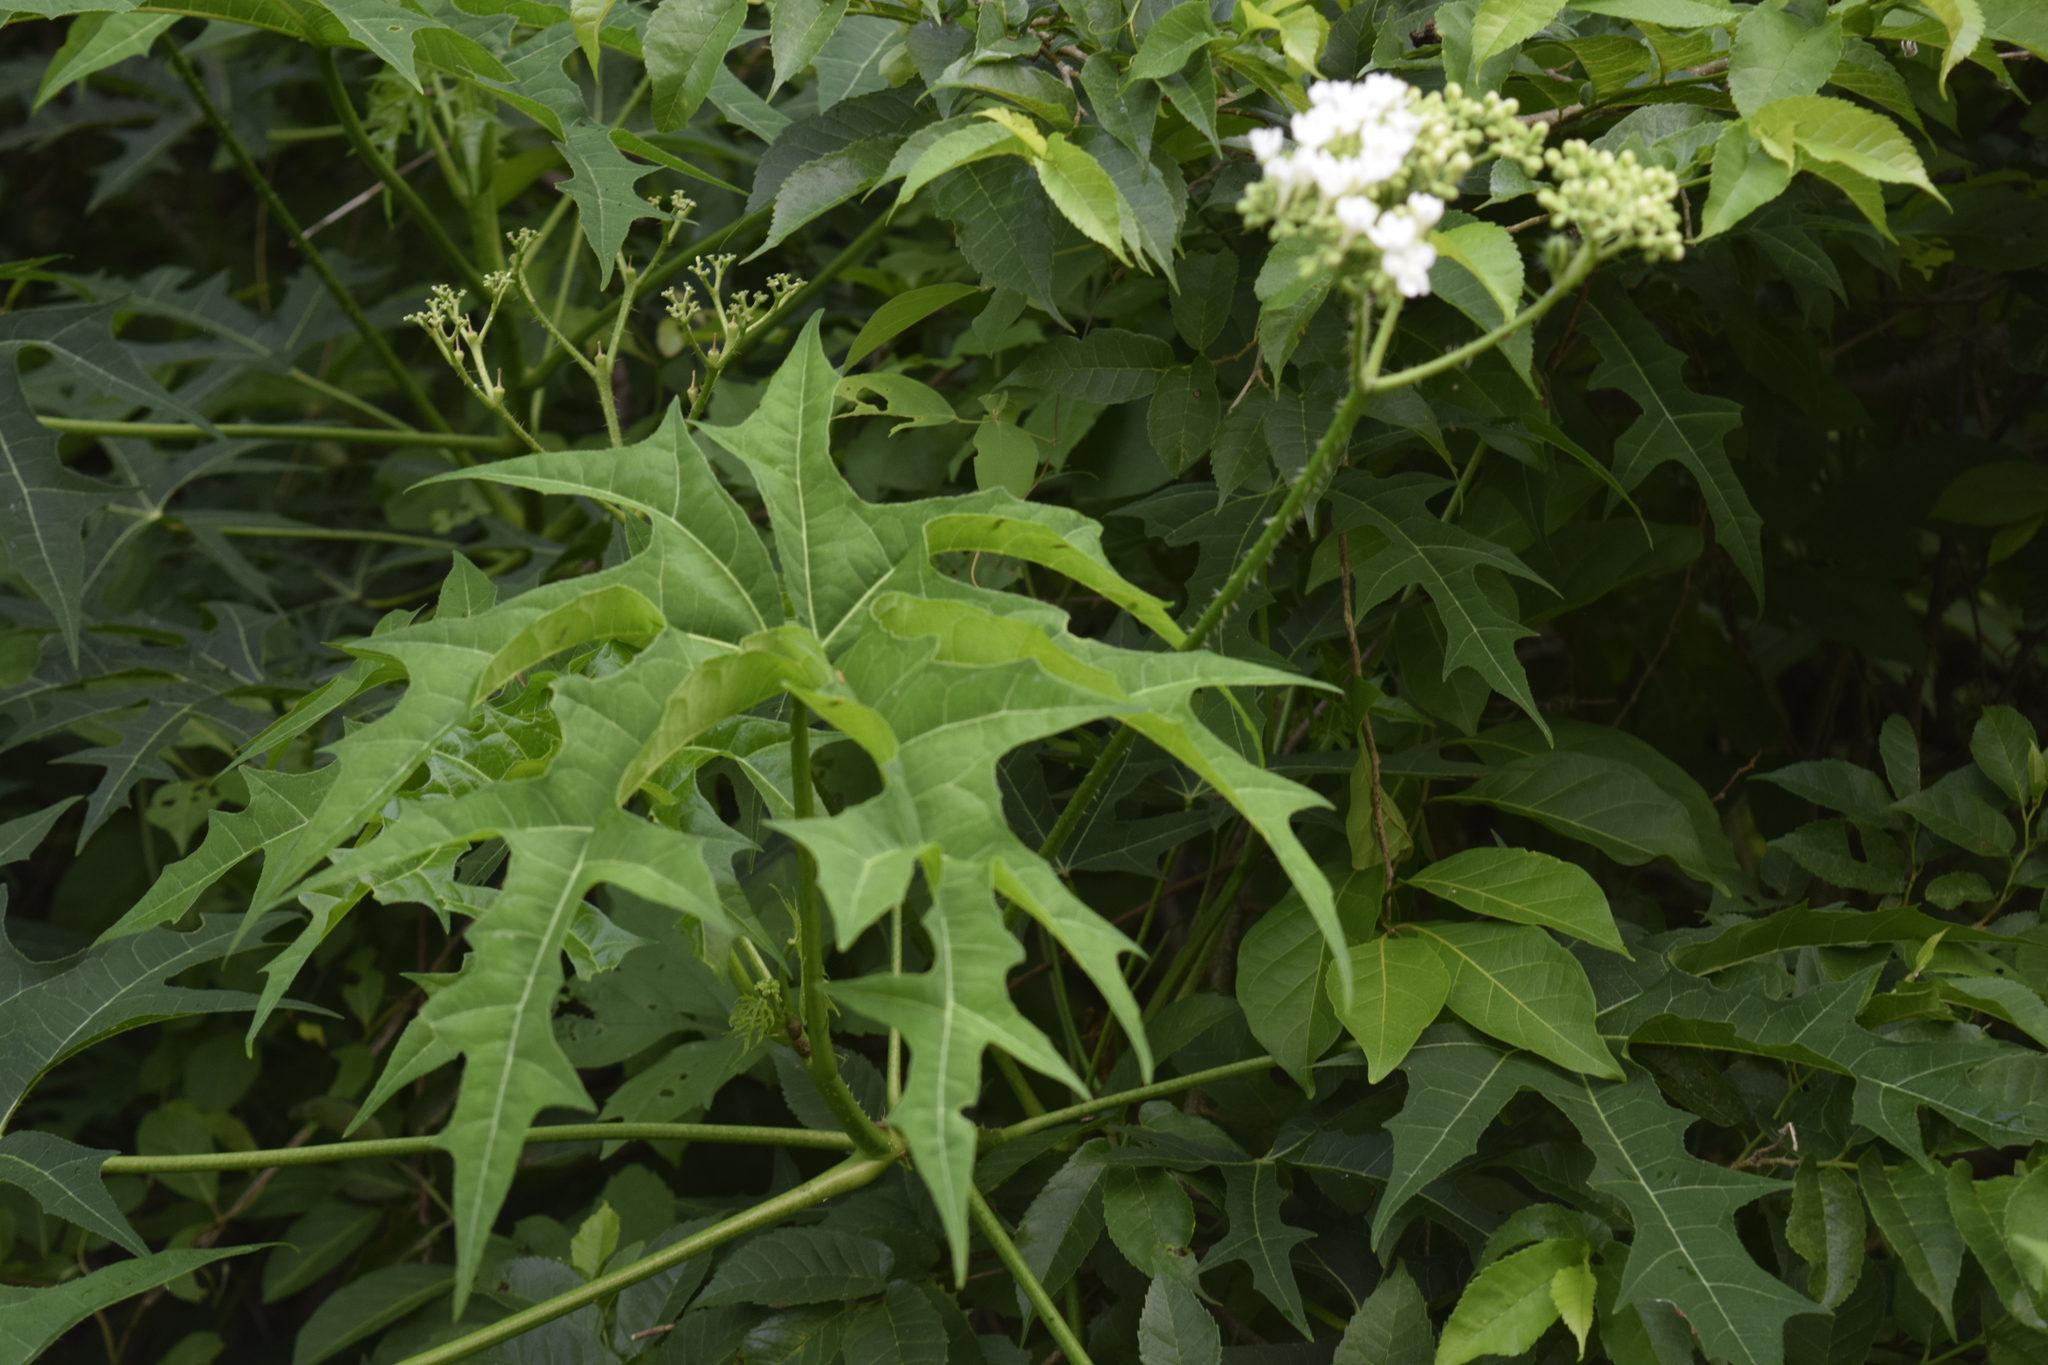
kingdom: Plantae
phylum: Tracheophyta
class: Magnoliopsida
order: Malpighiales
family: Euphorbiaceae
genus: Cnidoscolus
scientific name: Cnidoscolus aconitifolius
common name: Cabbage-star
